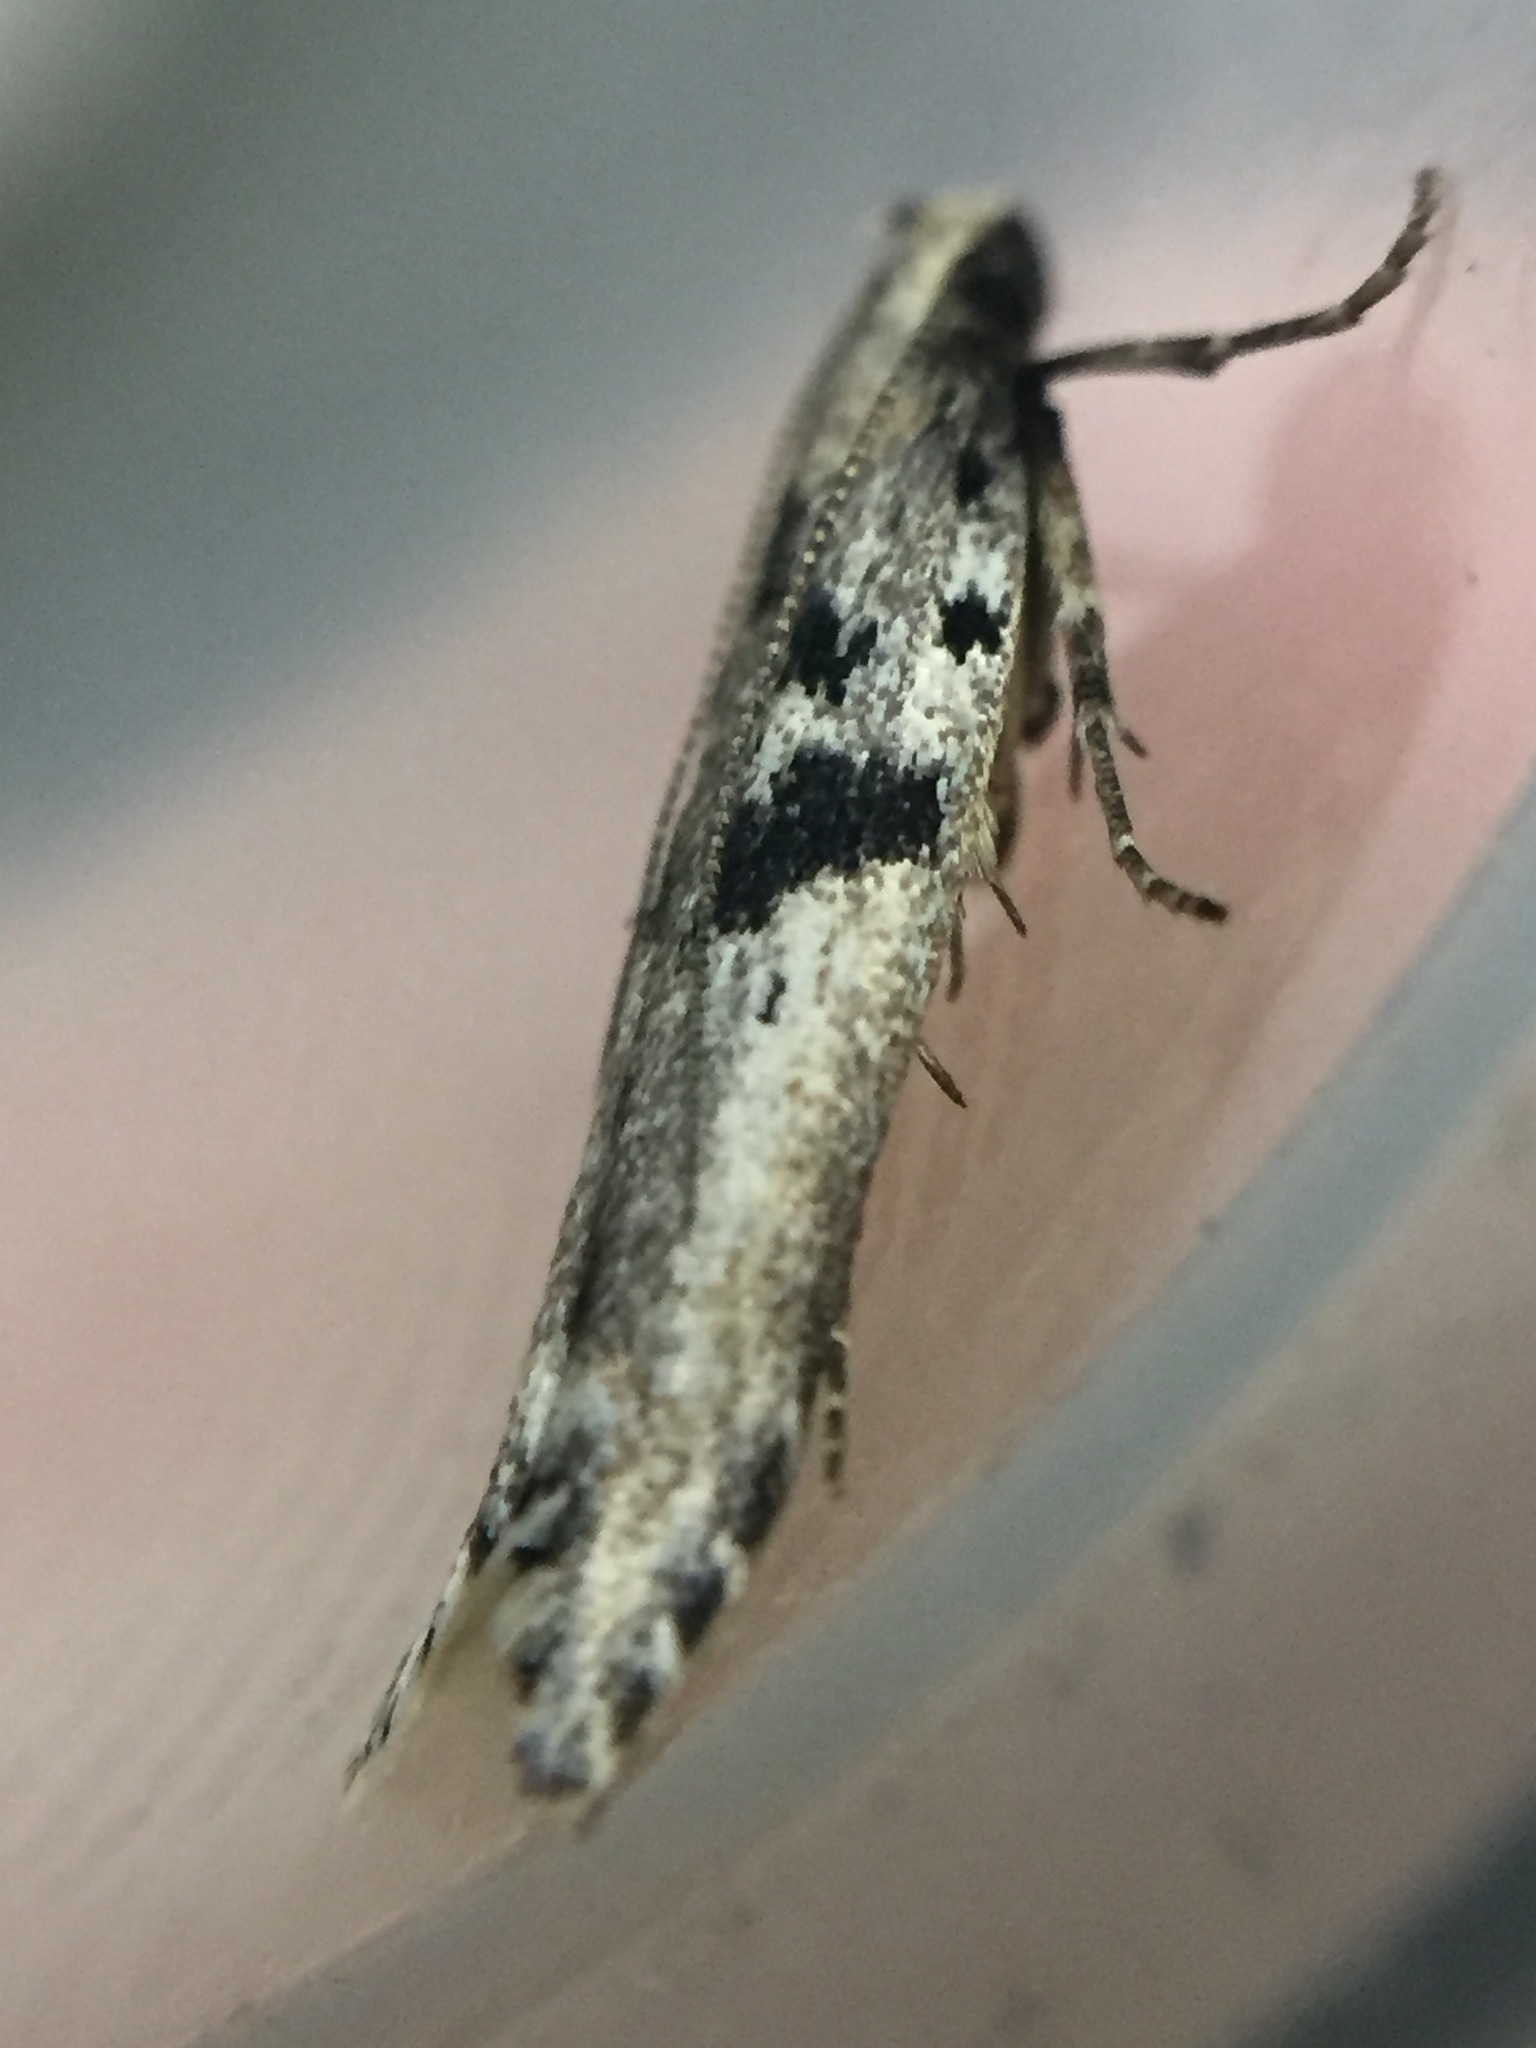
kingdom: Animalia
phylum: Arthropoda
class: Insecta
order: Lepidoptera
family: Gelechiidae
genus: Aristotelia
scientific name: Aristotelia paradesma
